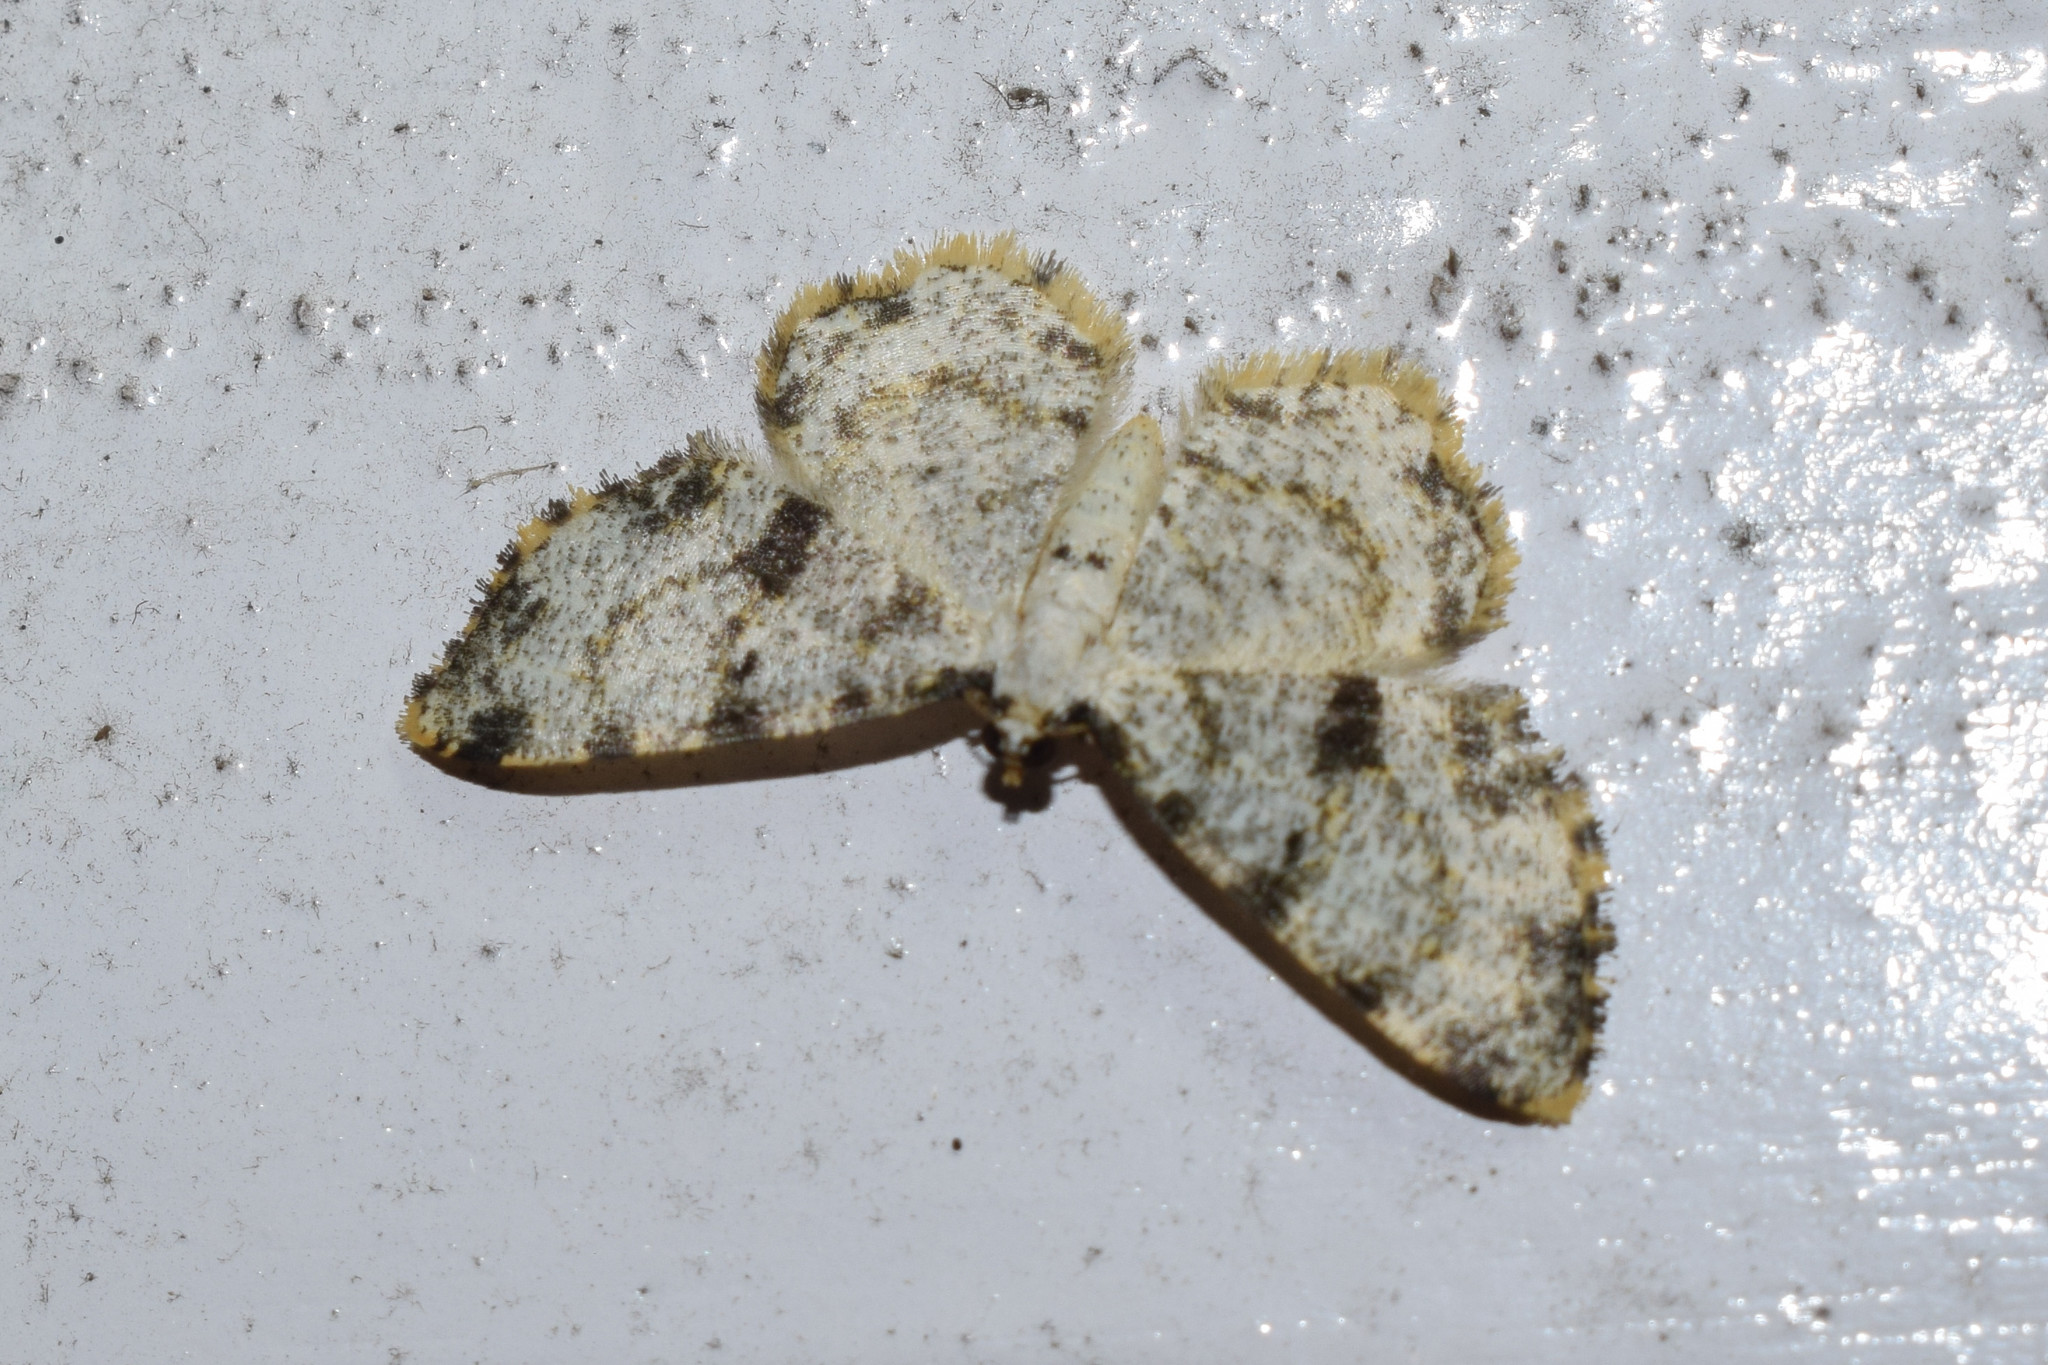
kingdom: Animalia
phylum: Arthropoda
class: Insecta
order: Lepidoptera
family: Geometridae
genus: Monocerotesa
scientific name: Monocerotesa
